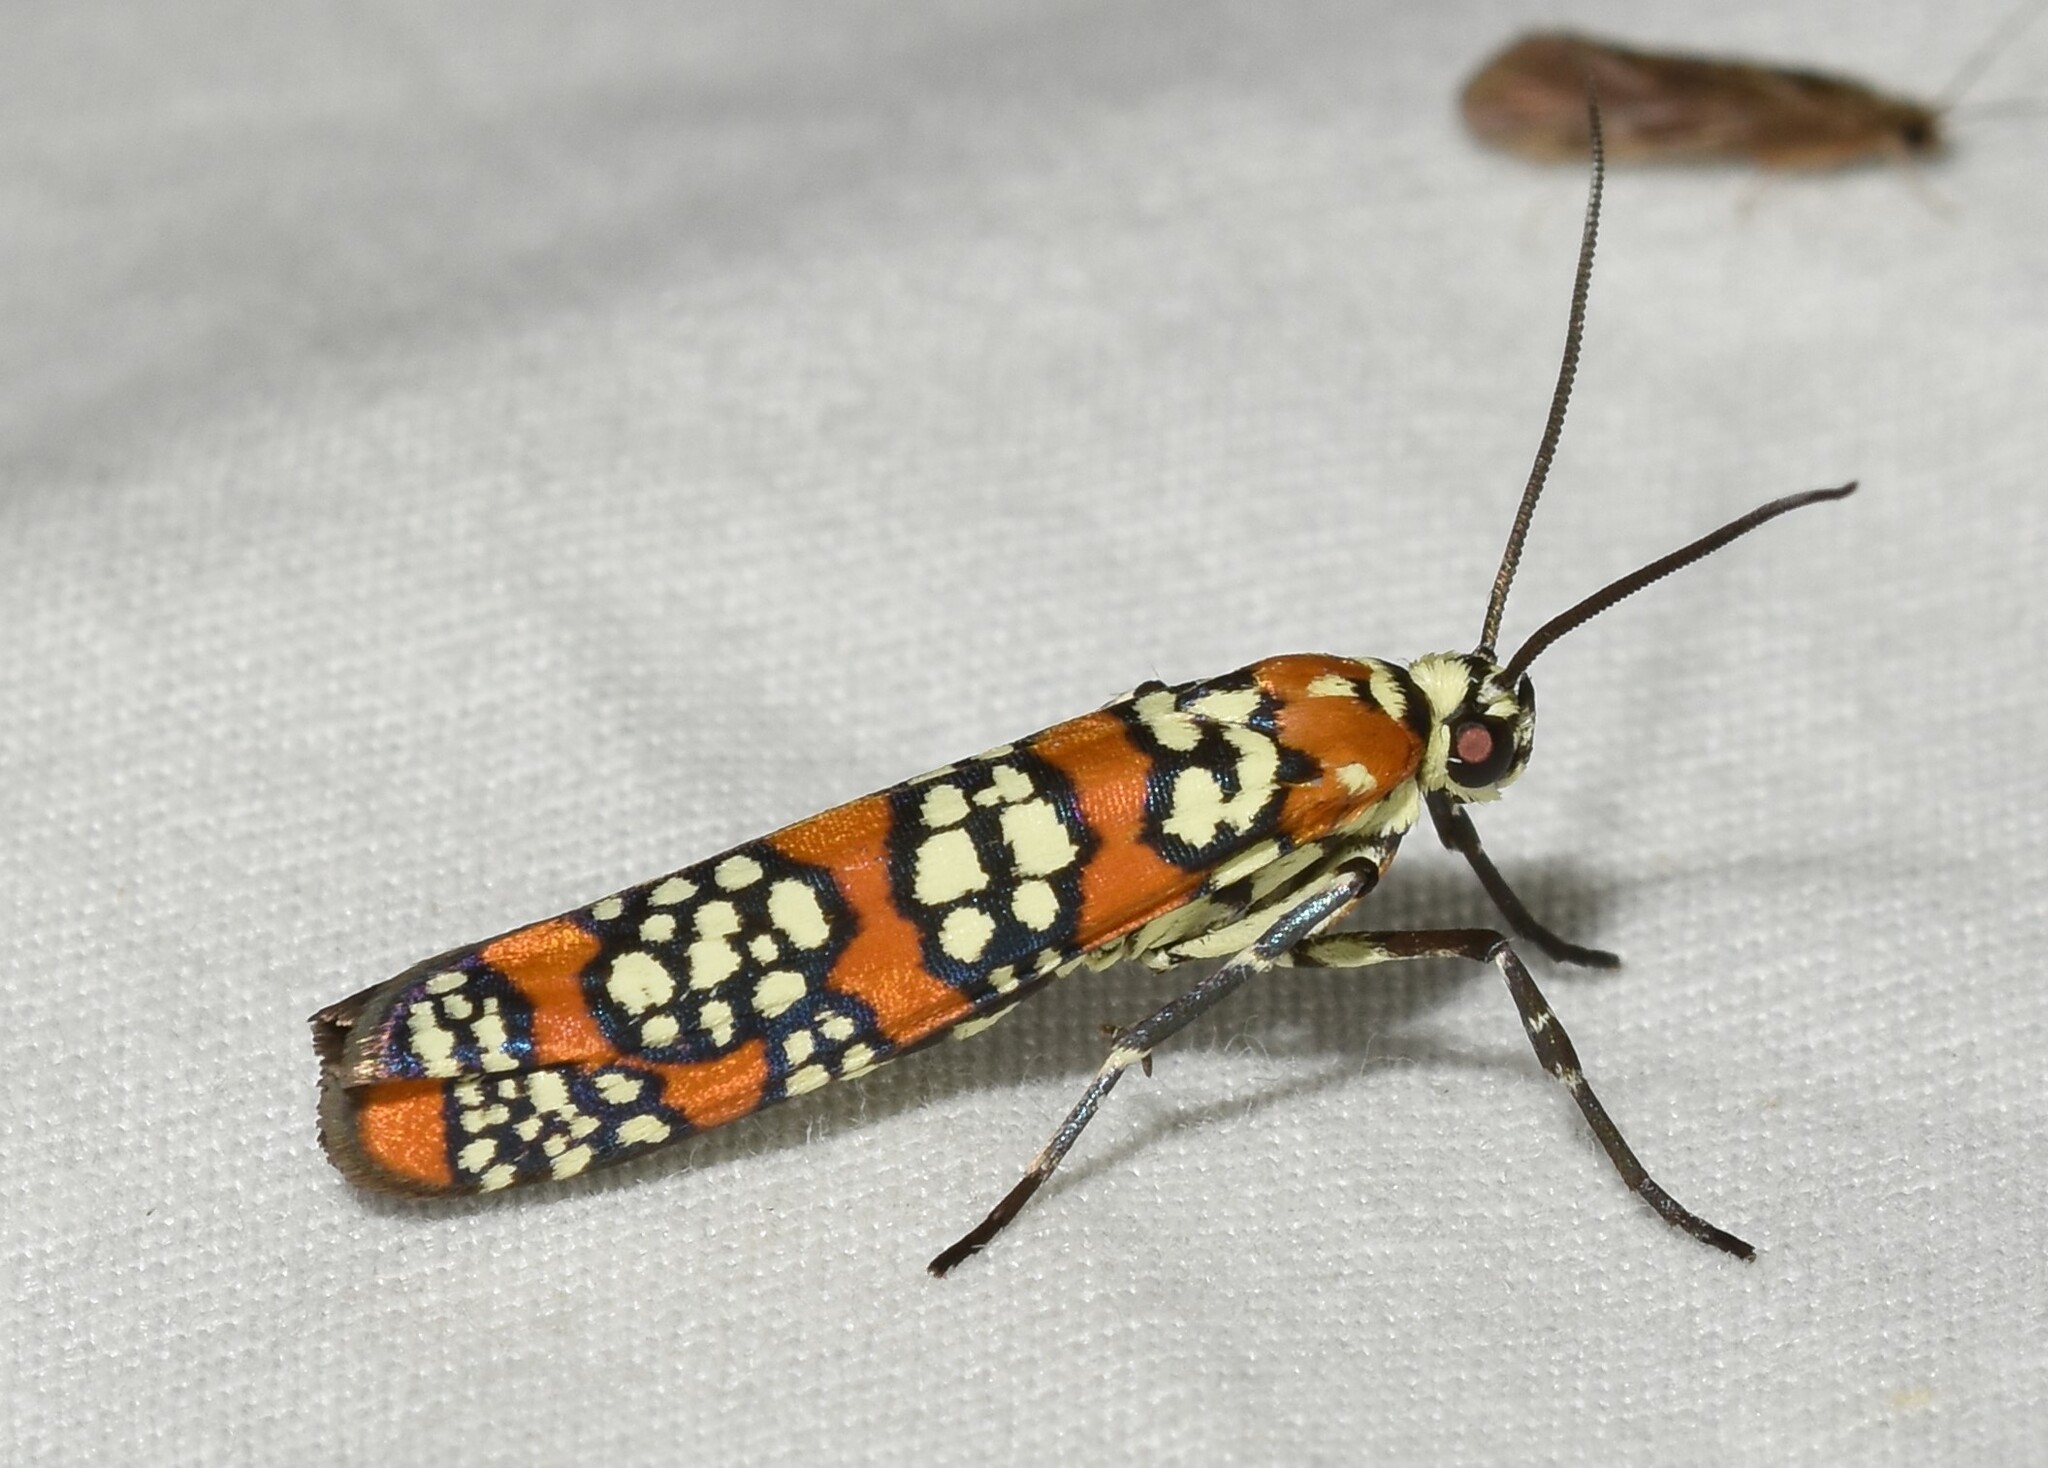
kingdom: Animalia
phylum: Arthropoda
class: Insecta
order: Lepidoptera
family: Attevidae
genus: Atteva
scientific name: Atteva punctella
